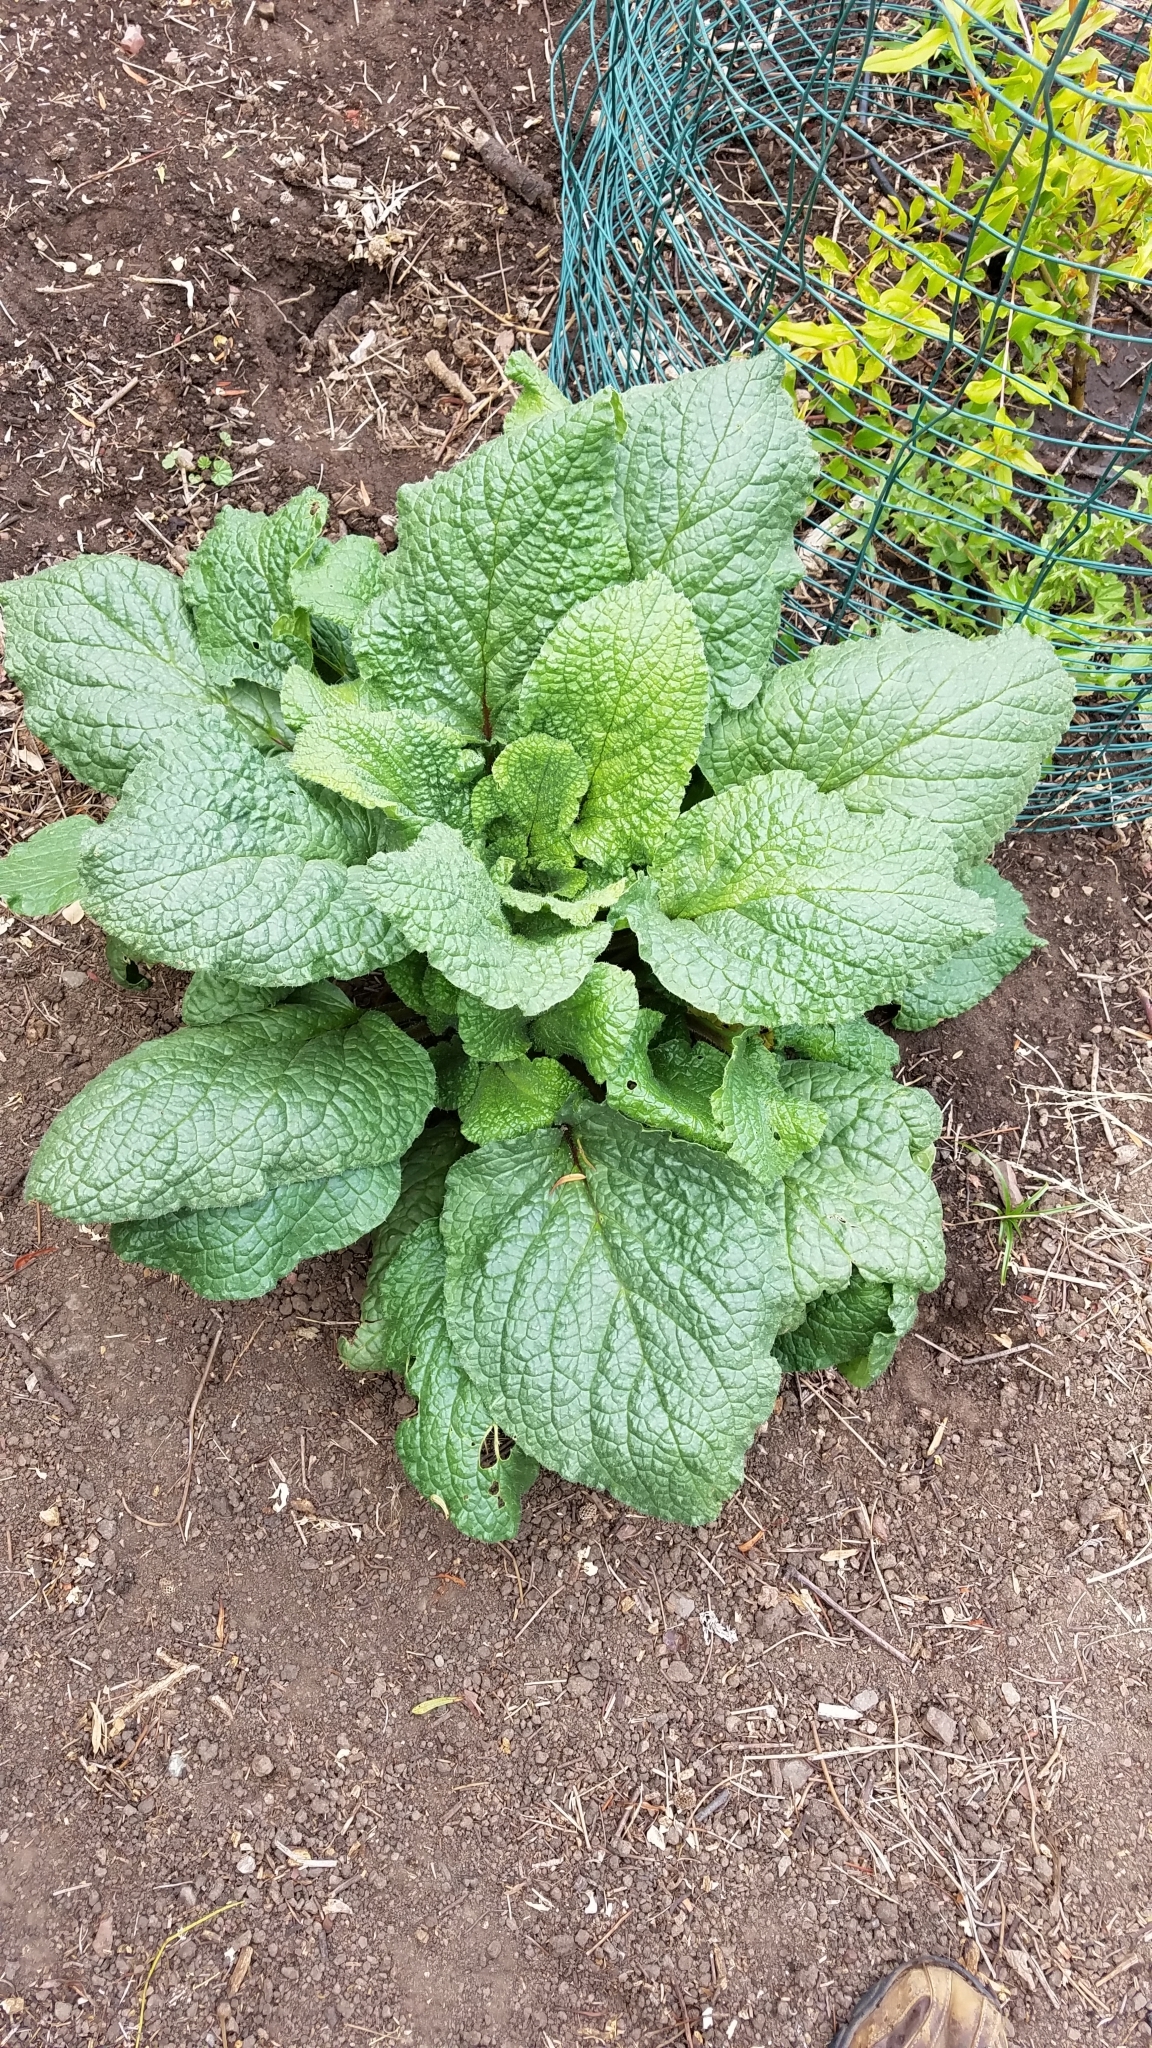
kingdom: Plantae
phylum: Tracheophyta
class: Magnoliopsida
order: Boraginales
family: Boraginaceae
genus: Borago
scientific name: Borago officinalis
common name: Borage
